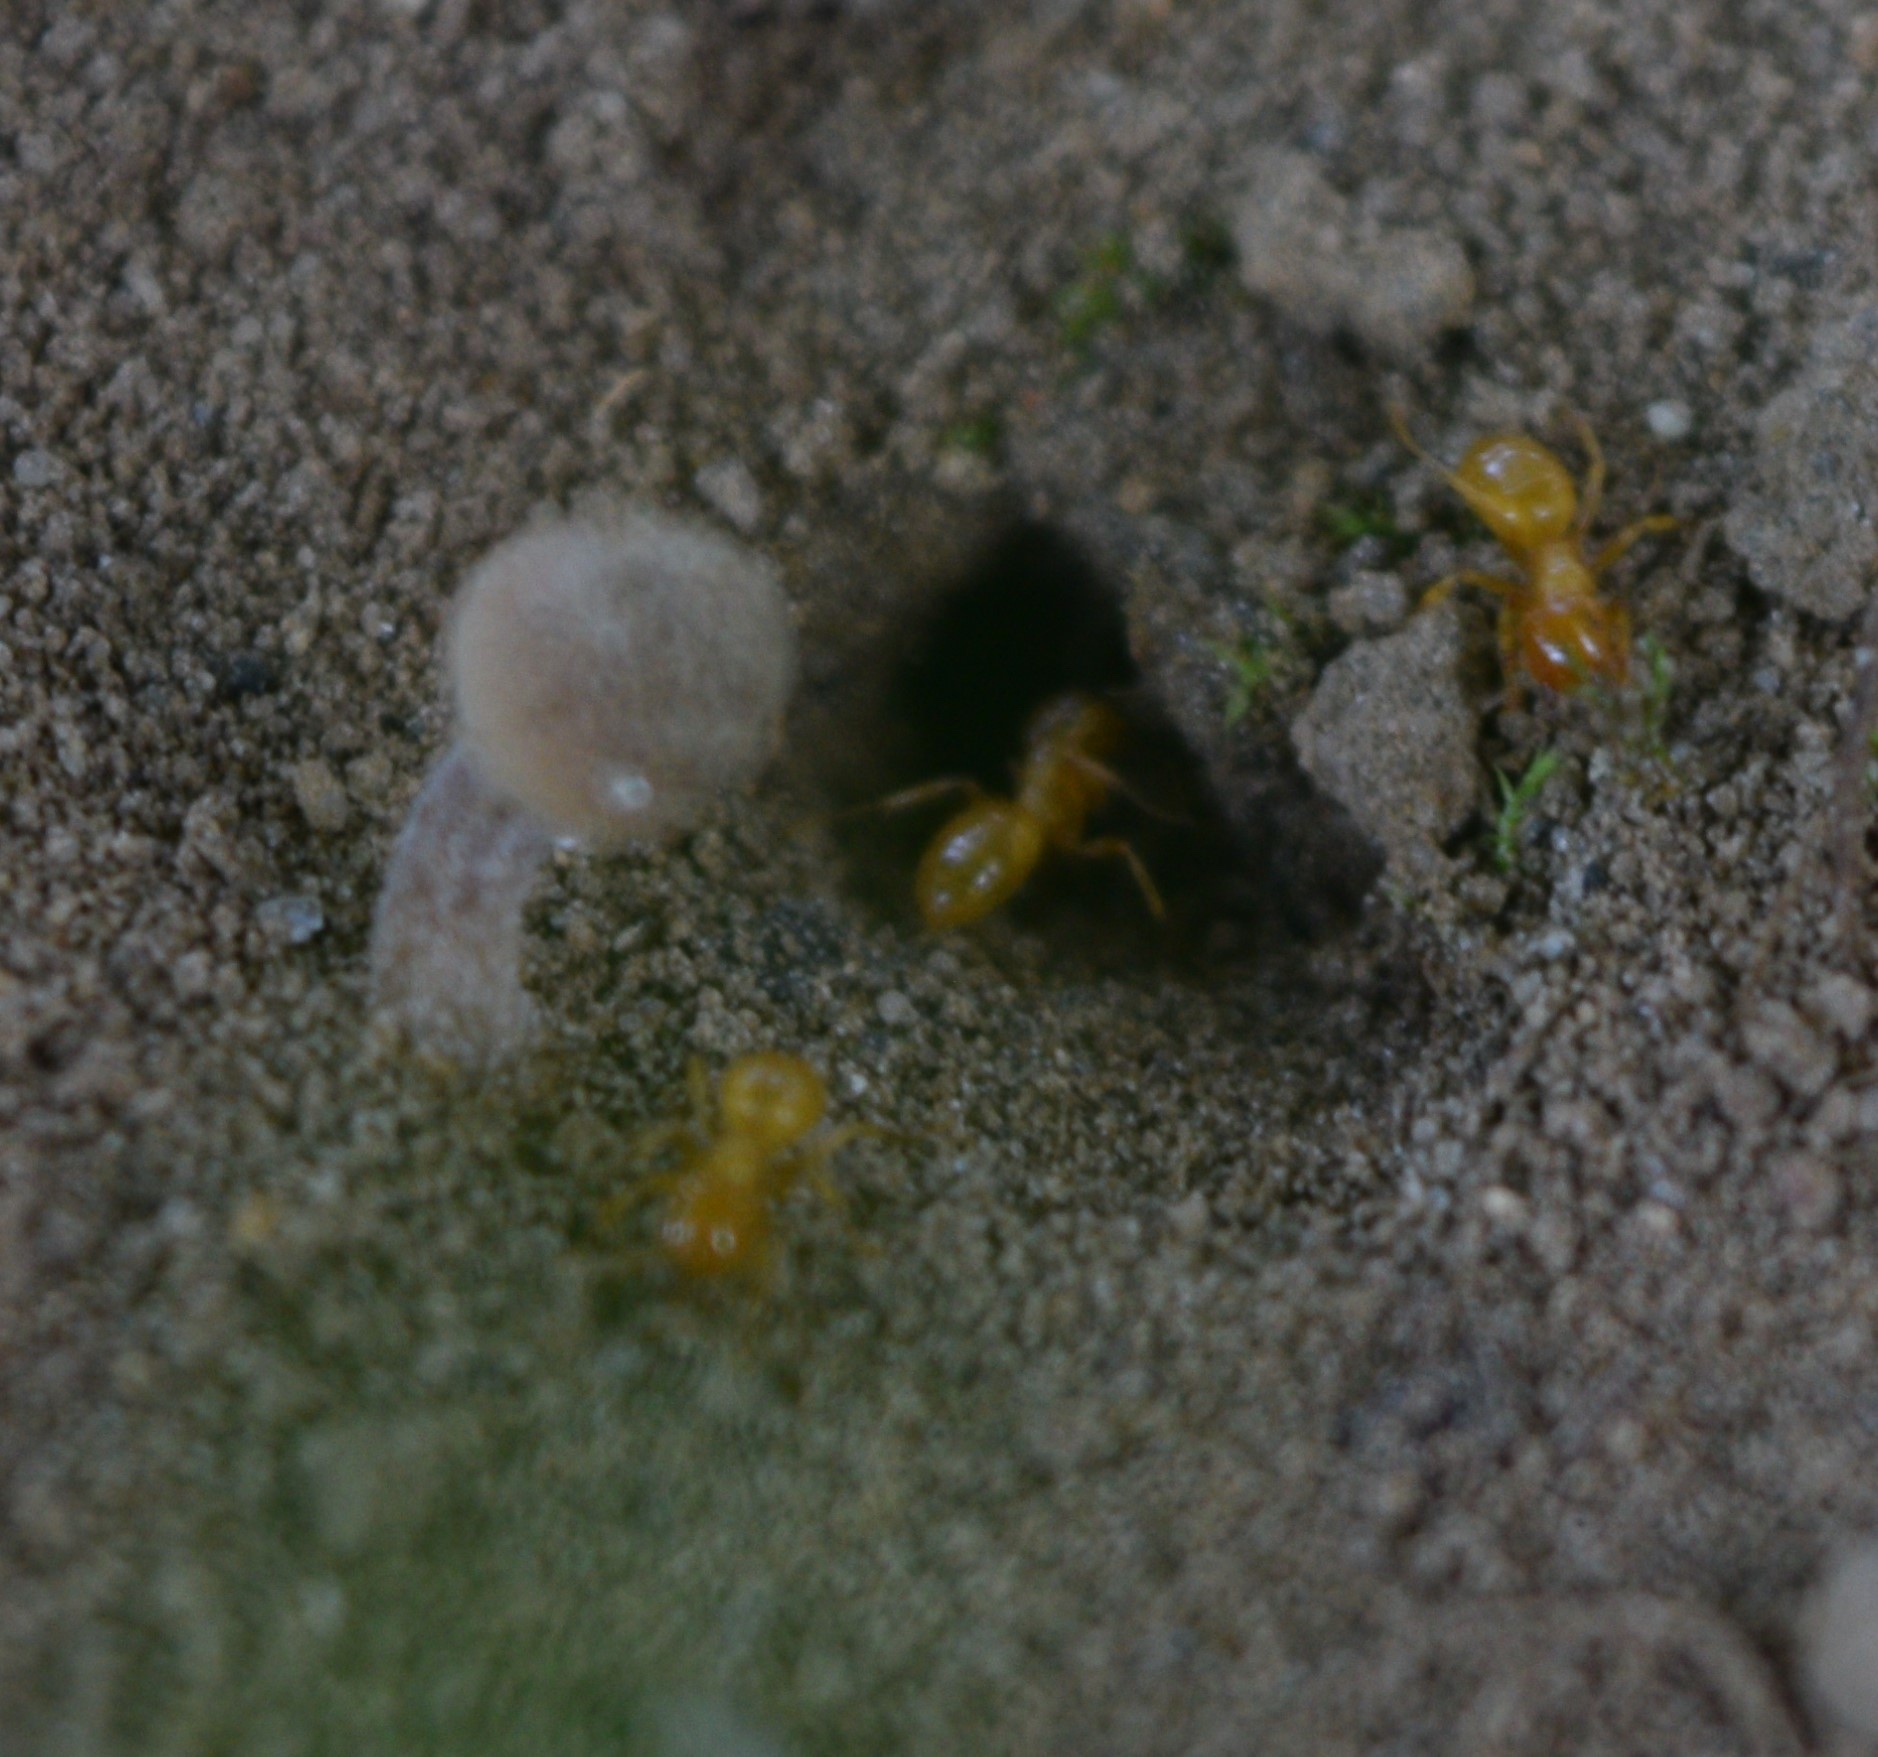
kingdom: Animalia
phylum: Arthropoda
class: Insecta
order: Hymenoptera
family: Formicidae
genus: Acanthomyops
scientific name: Acanthomyops
